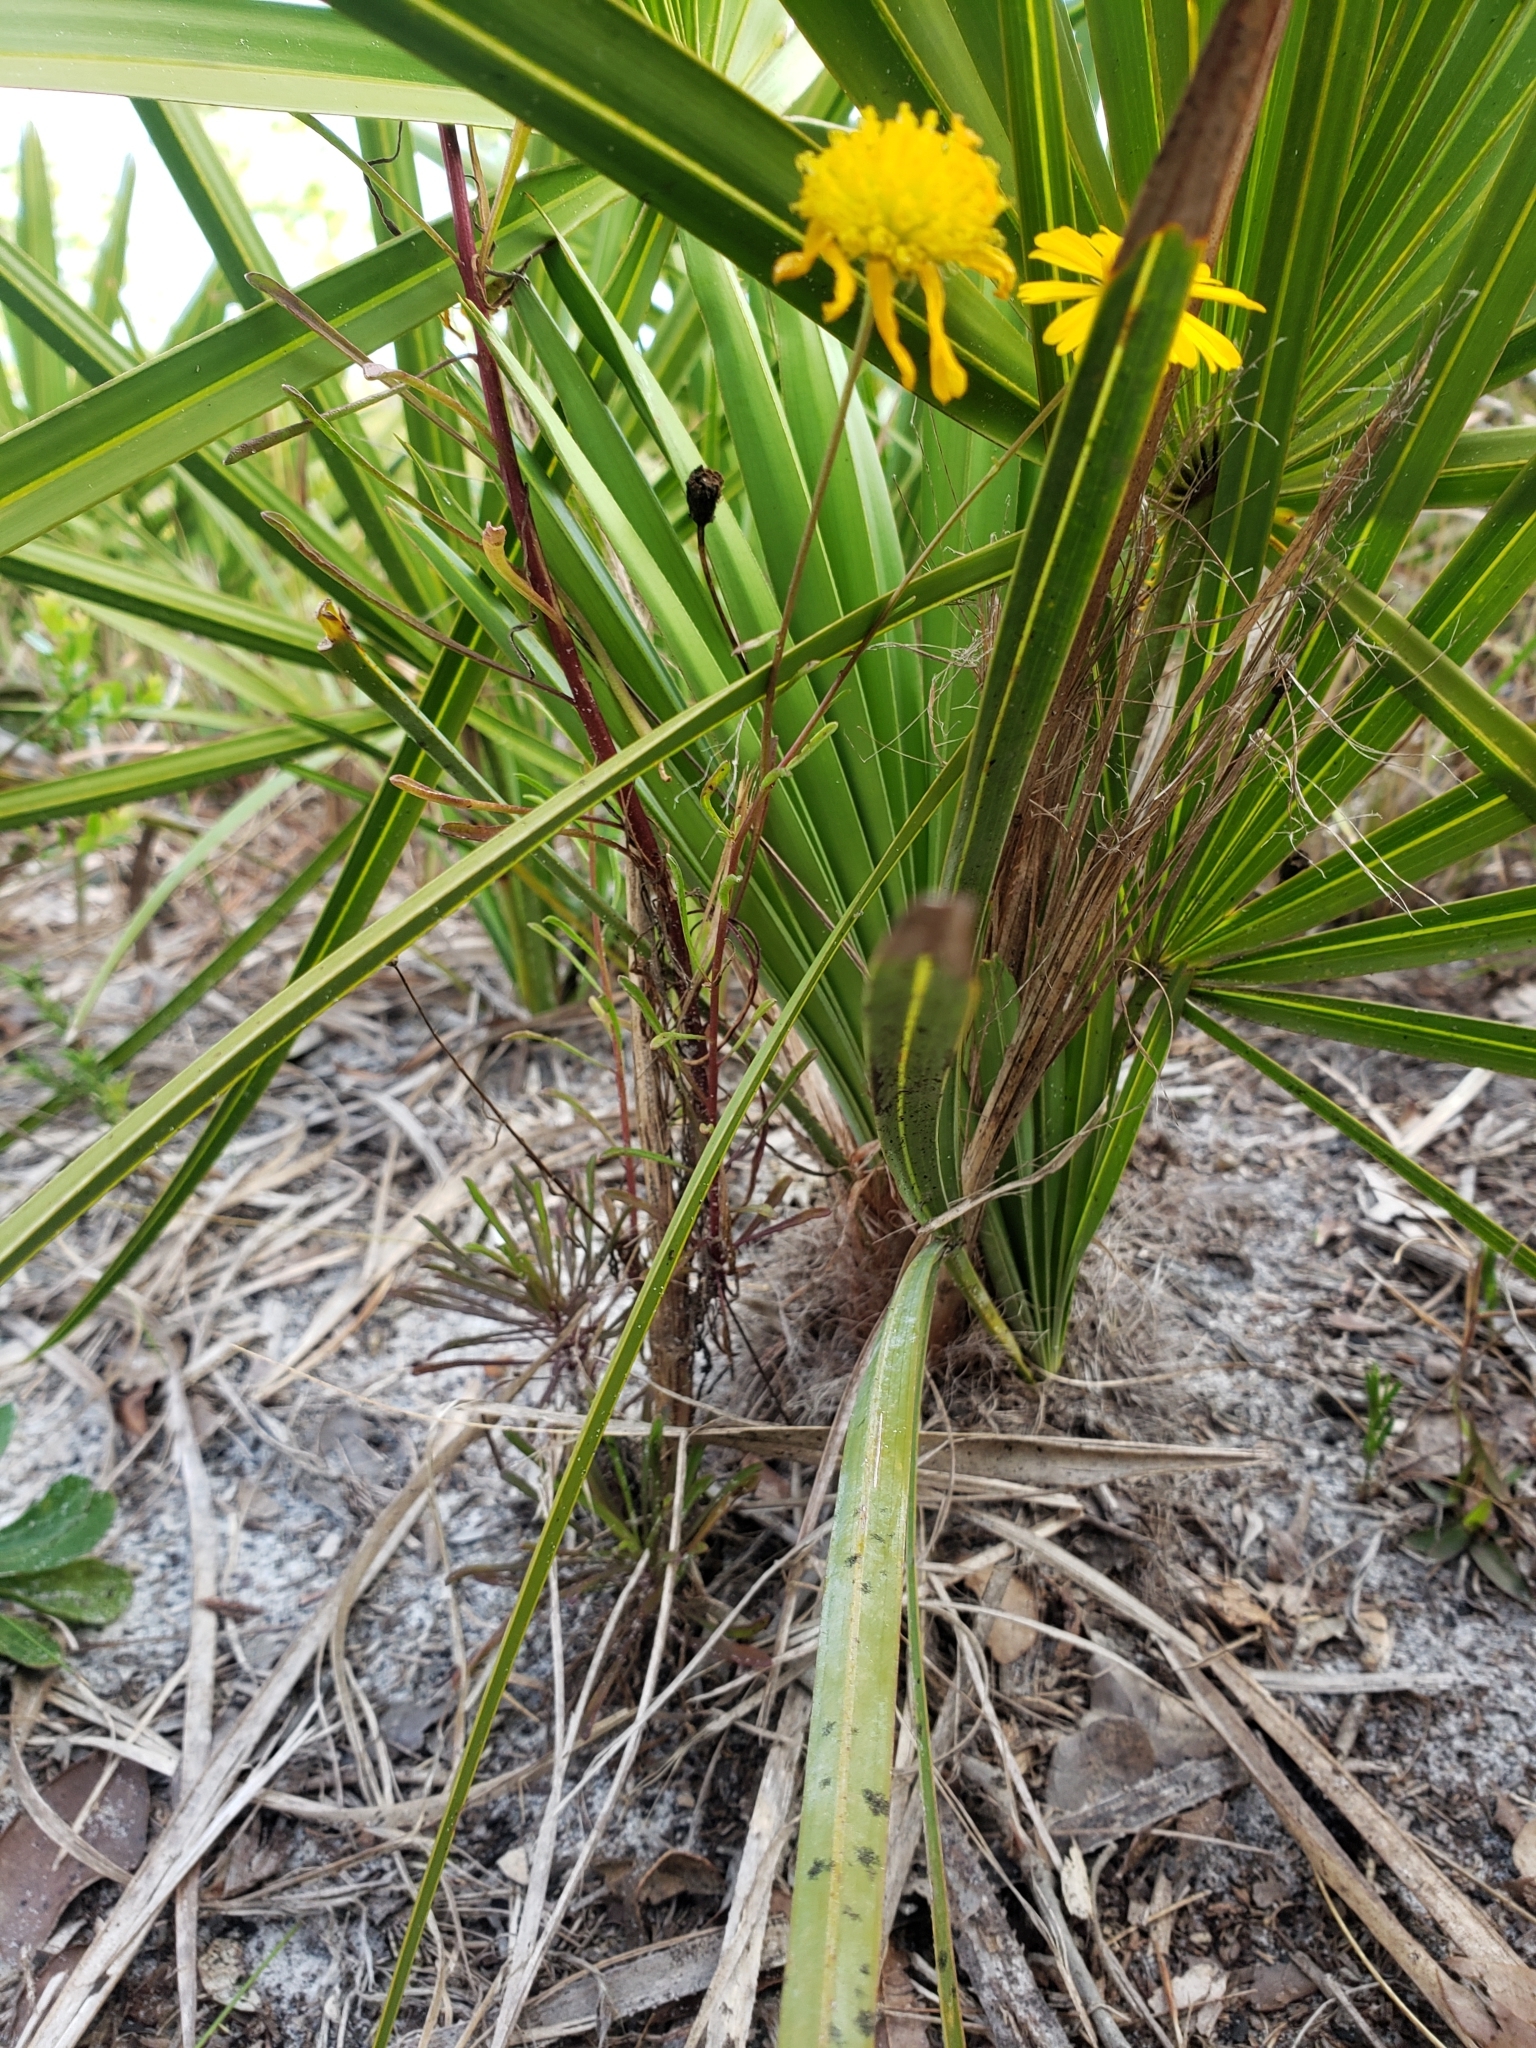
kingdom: Plantae
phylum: Tracheophyta
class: Magnoliopsida
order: Asterales
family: Asteraceae
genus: Balduina
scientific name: Balduina angustifolia
